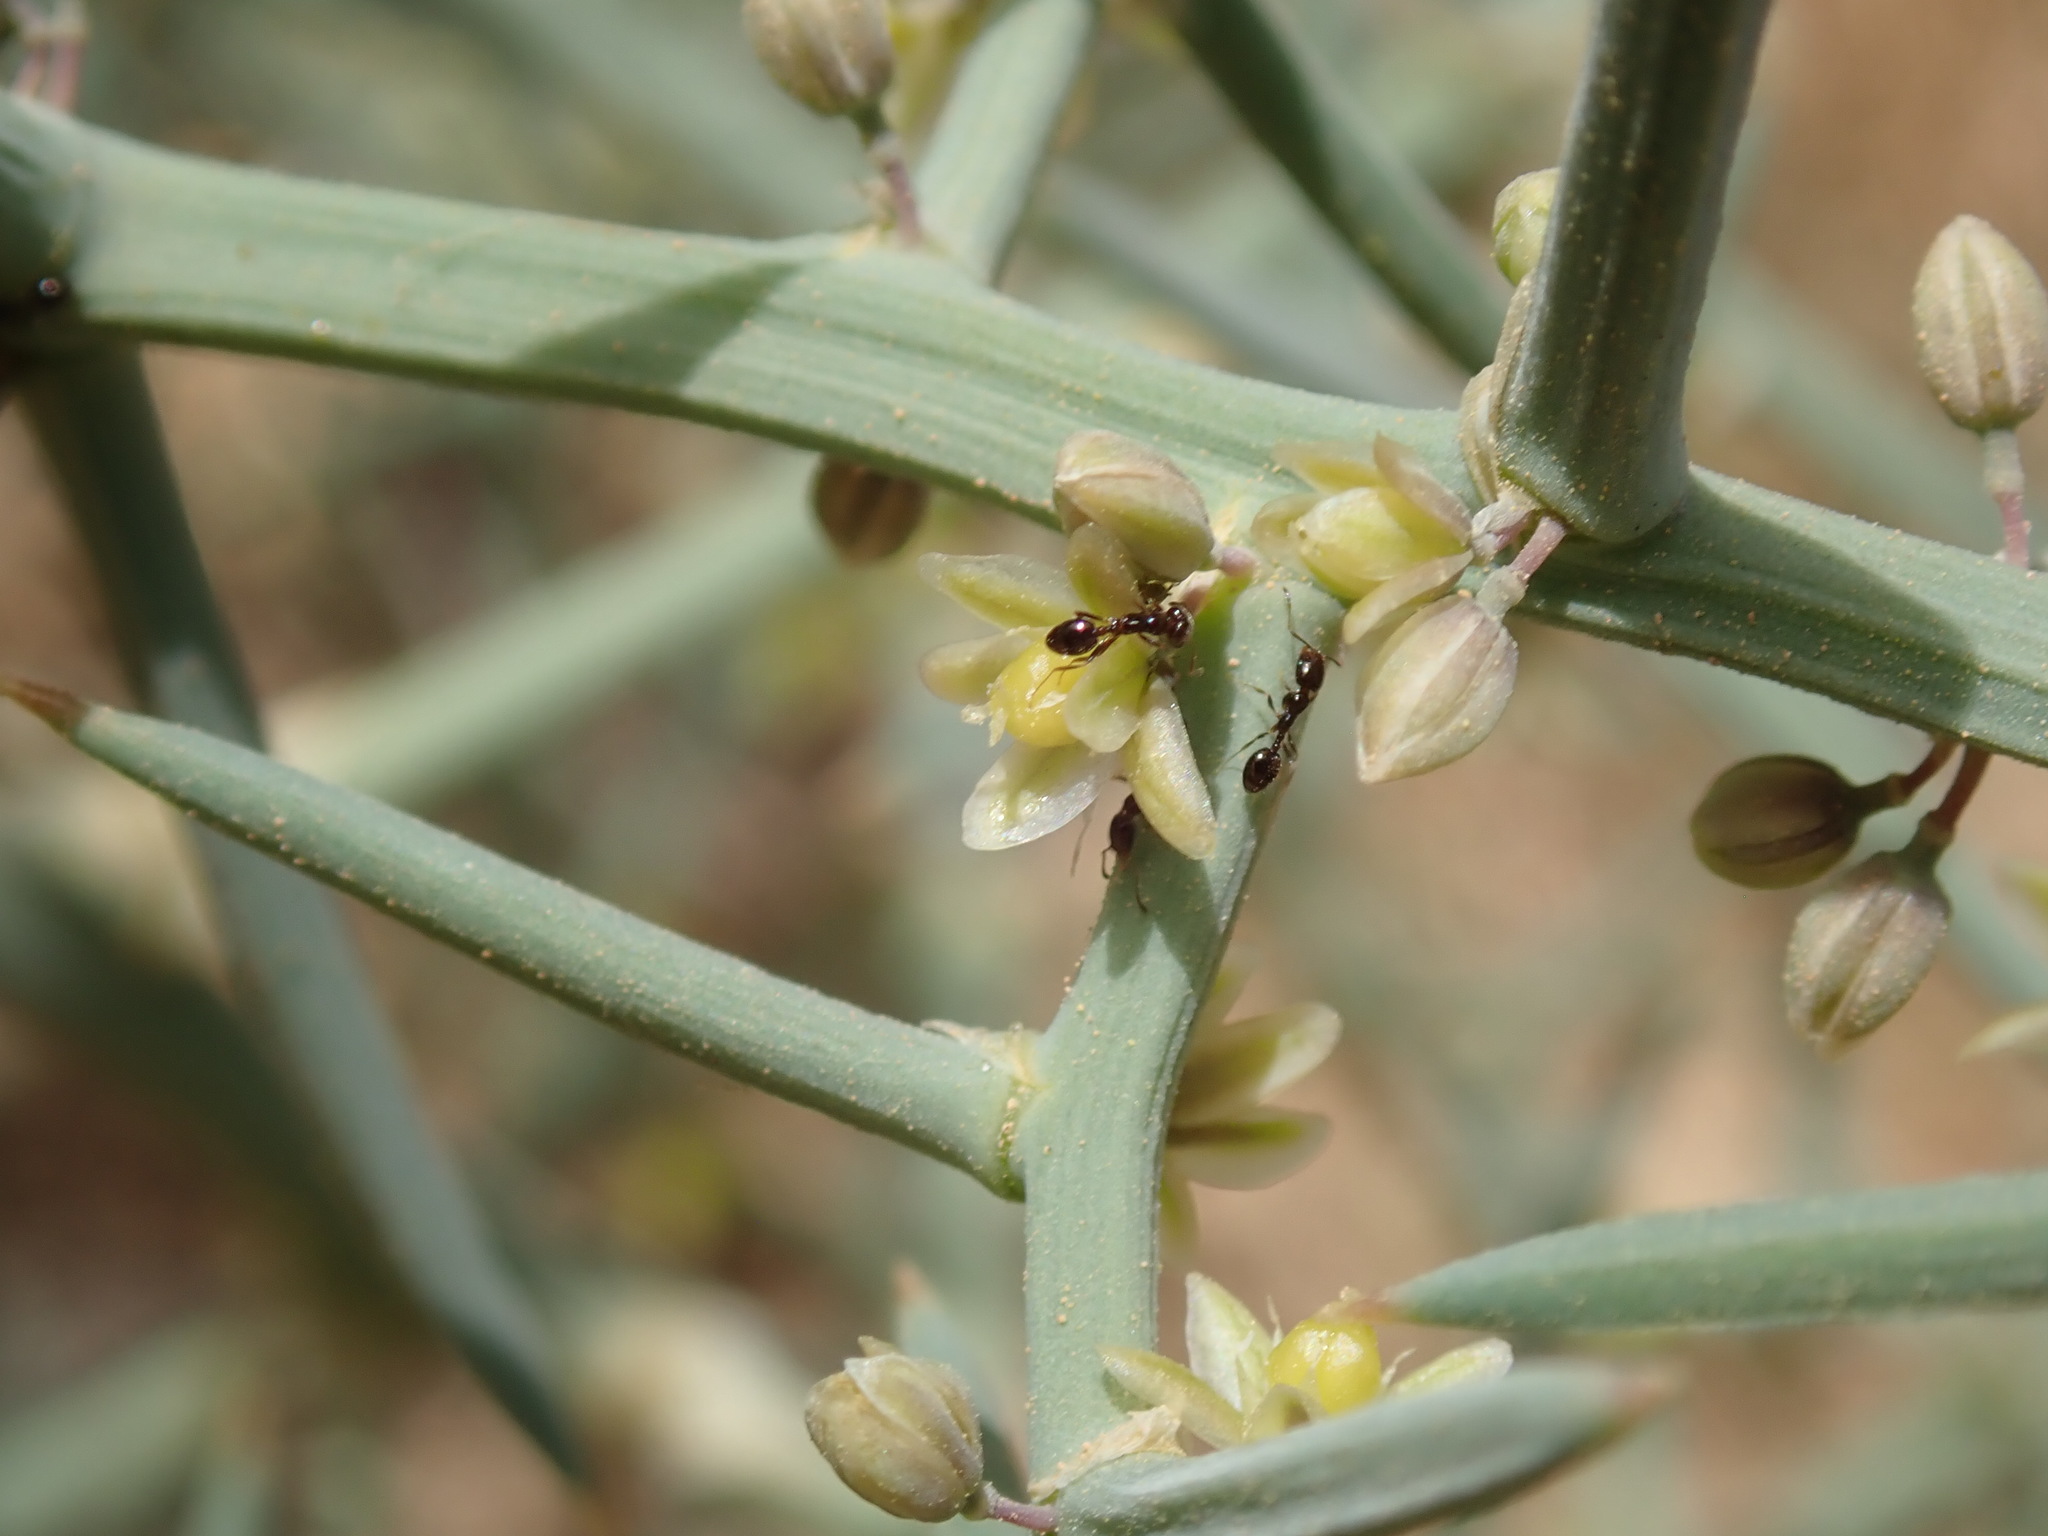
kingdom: Plantae
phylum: Tracheophyta
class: Liliopsida
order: Asparagales
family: Asparagaceae
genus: Asparagus
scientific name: Asparagus horridus
